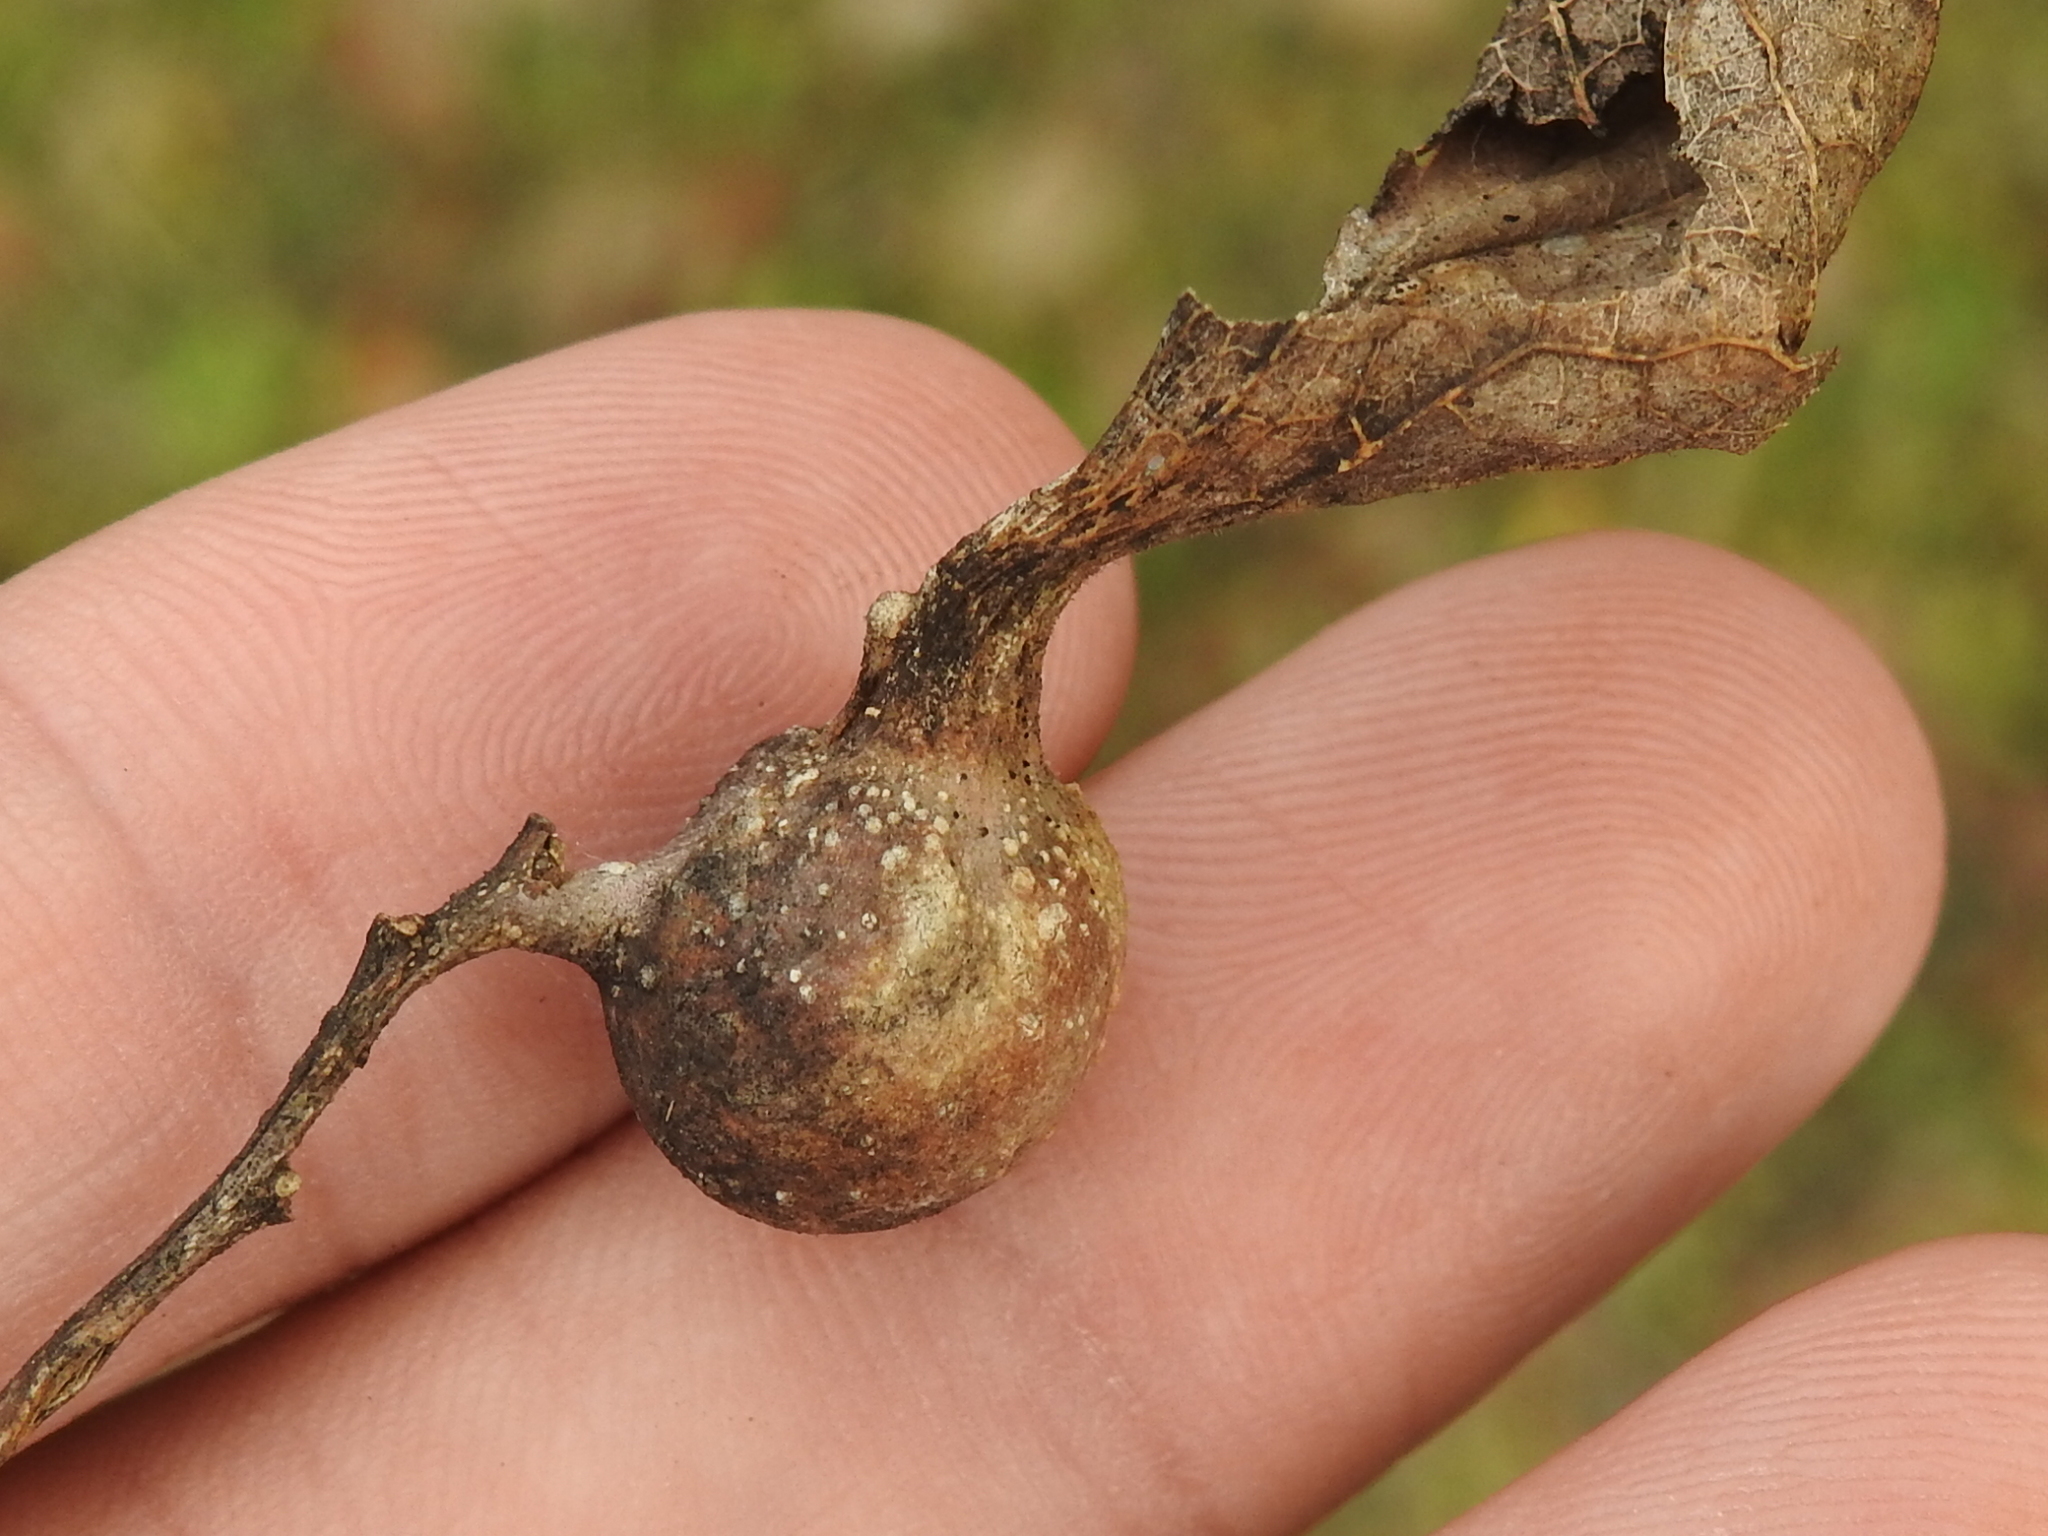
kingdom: Animalia
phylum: Arthropoda
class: Insecta
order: Hemiptera
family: Aphalaridae
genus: Pachypsylla
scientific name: Pachypsylla venusta
